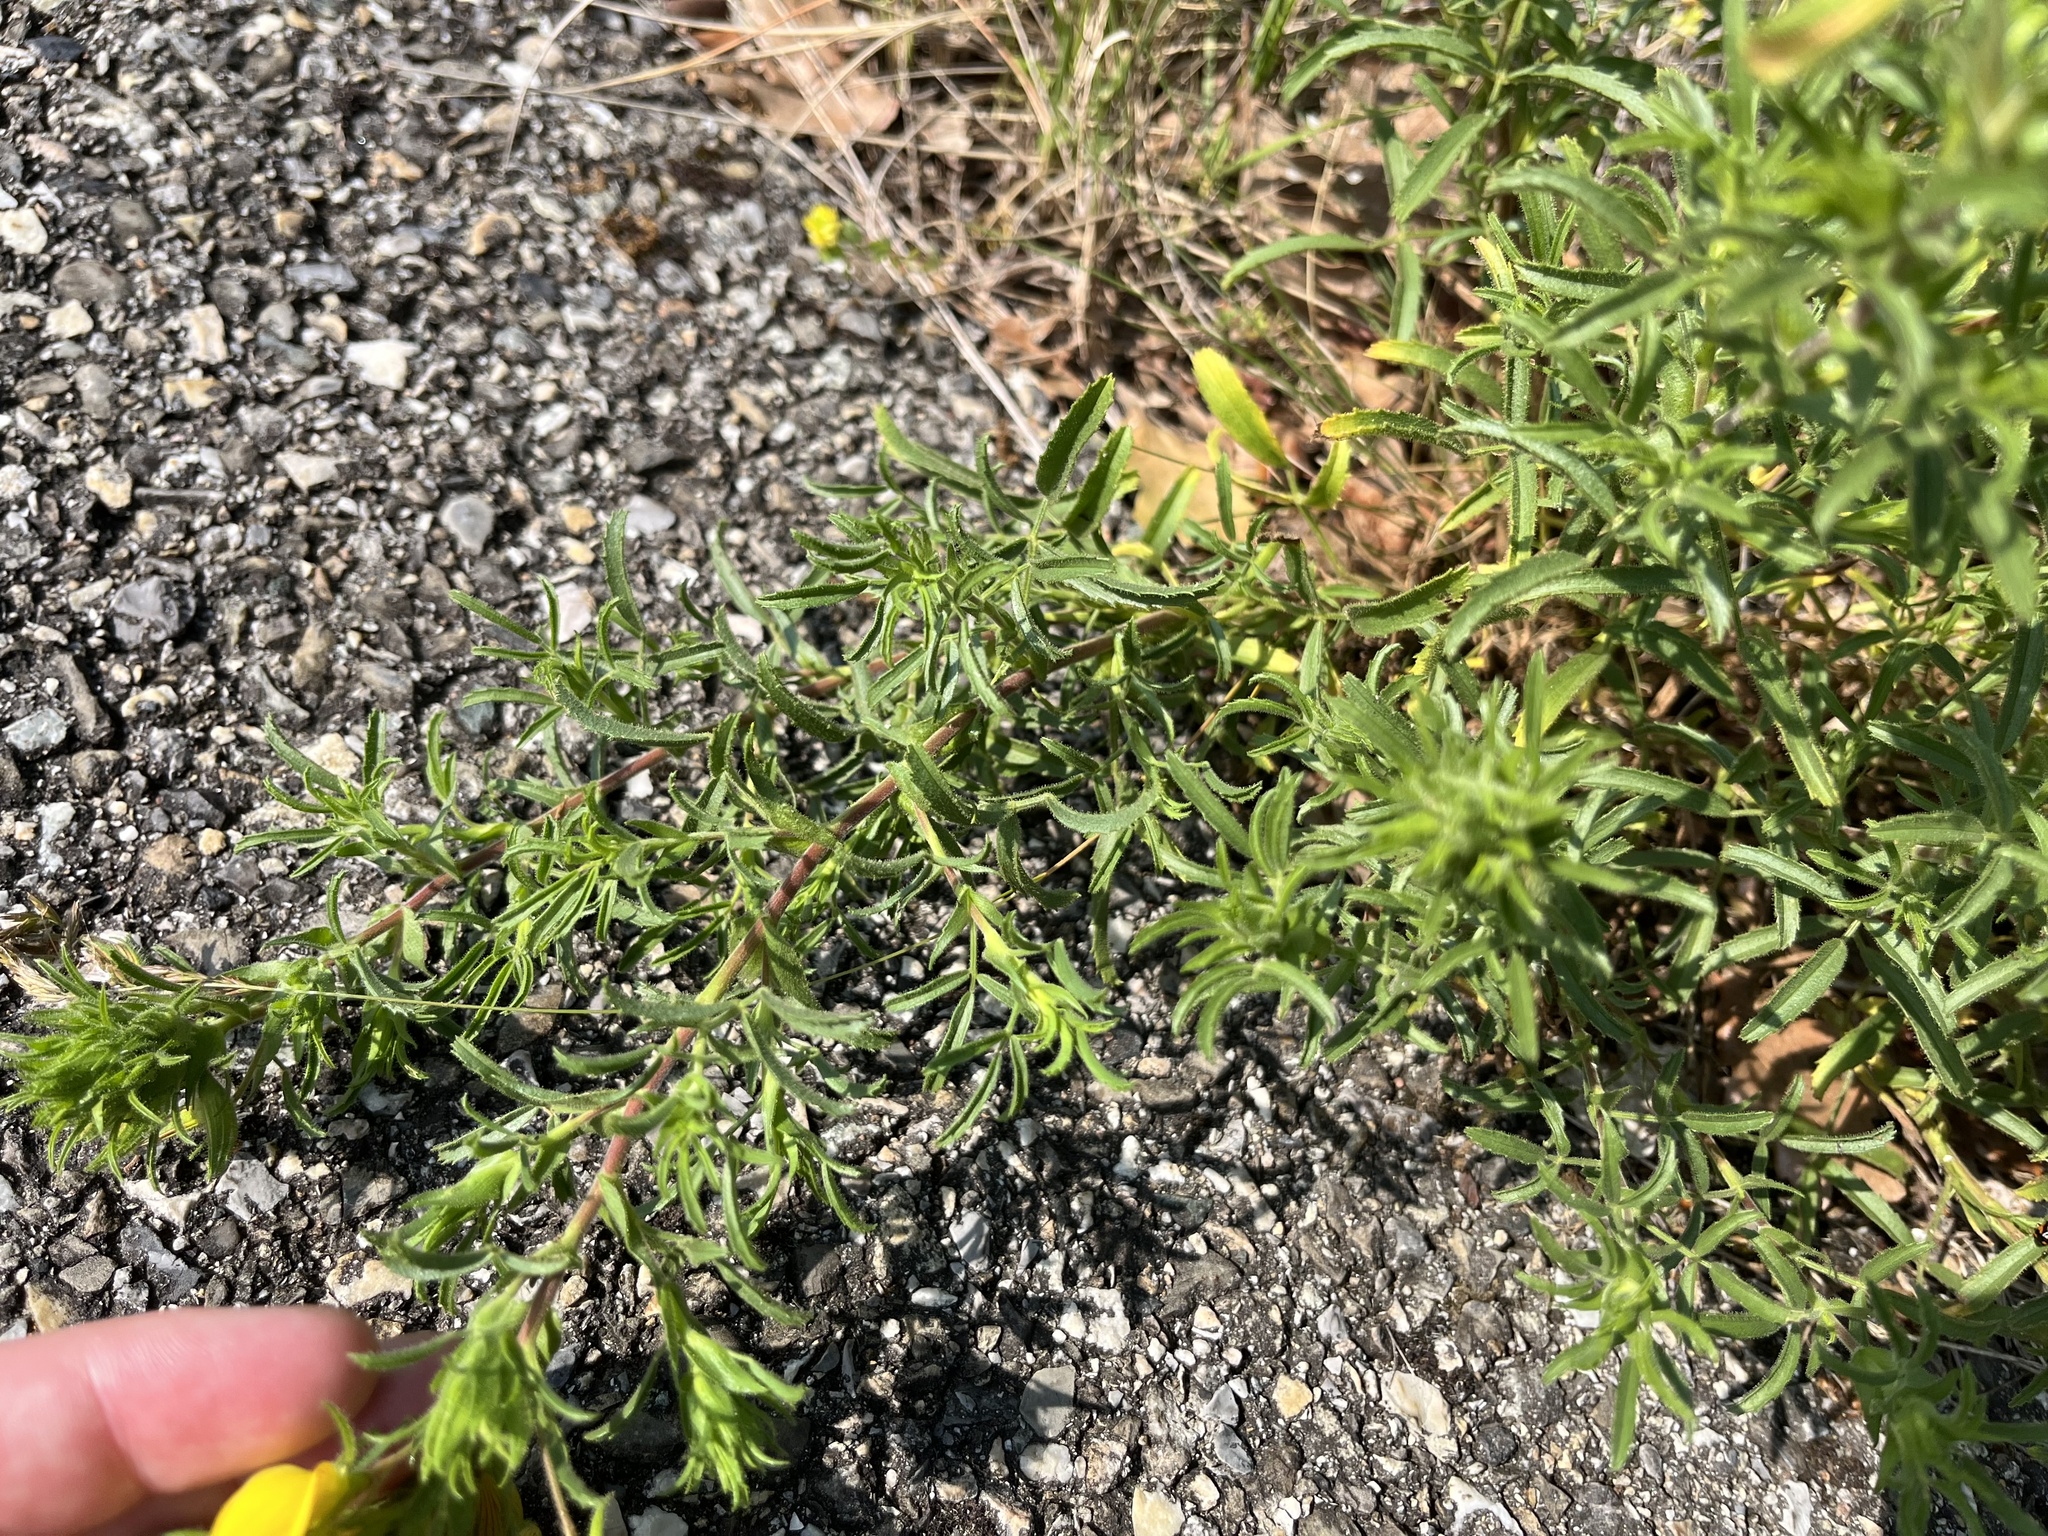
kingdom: Plantae
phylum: Tracheophyta
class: Magnoliopsida
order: Fabales
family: Fabaceae
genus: Ononis
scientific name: Ononis natrix
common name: Yellow restharrow
